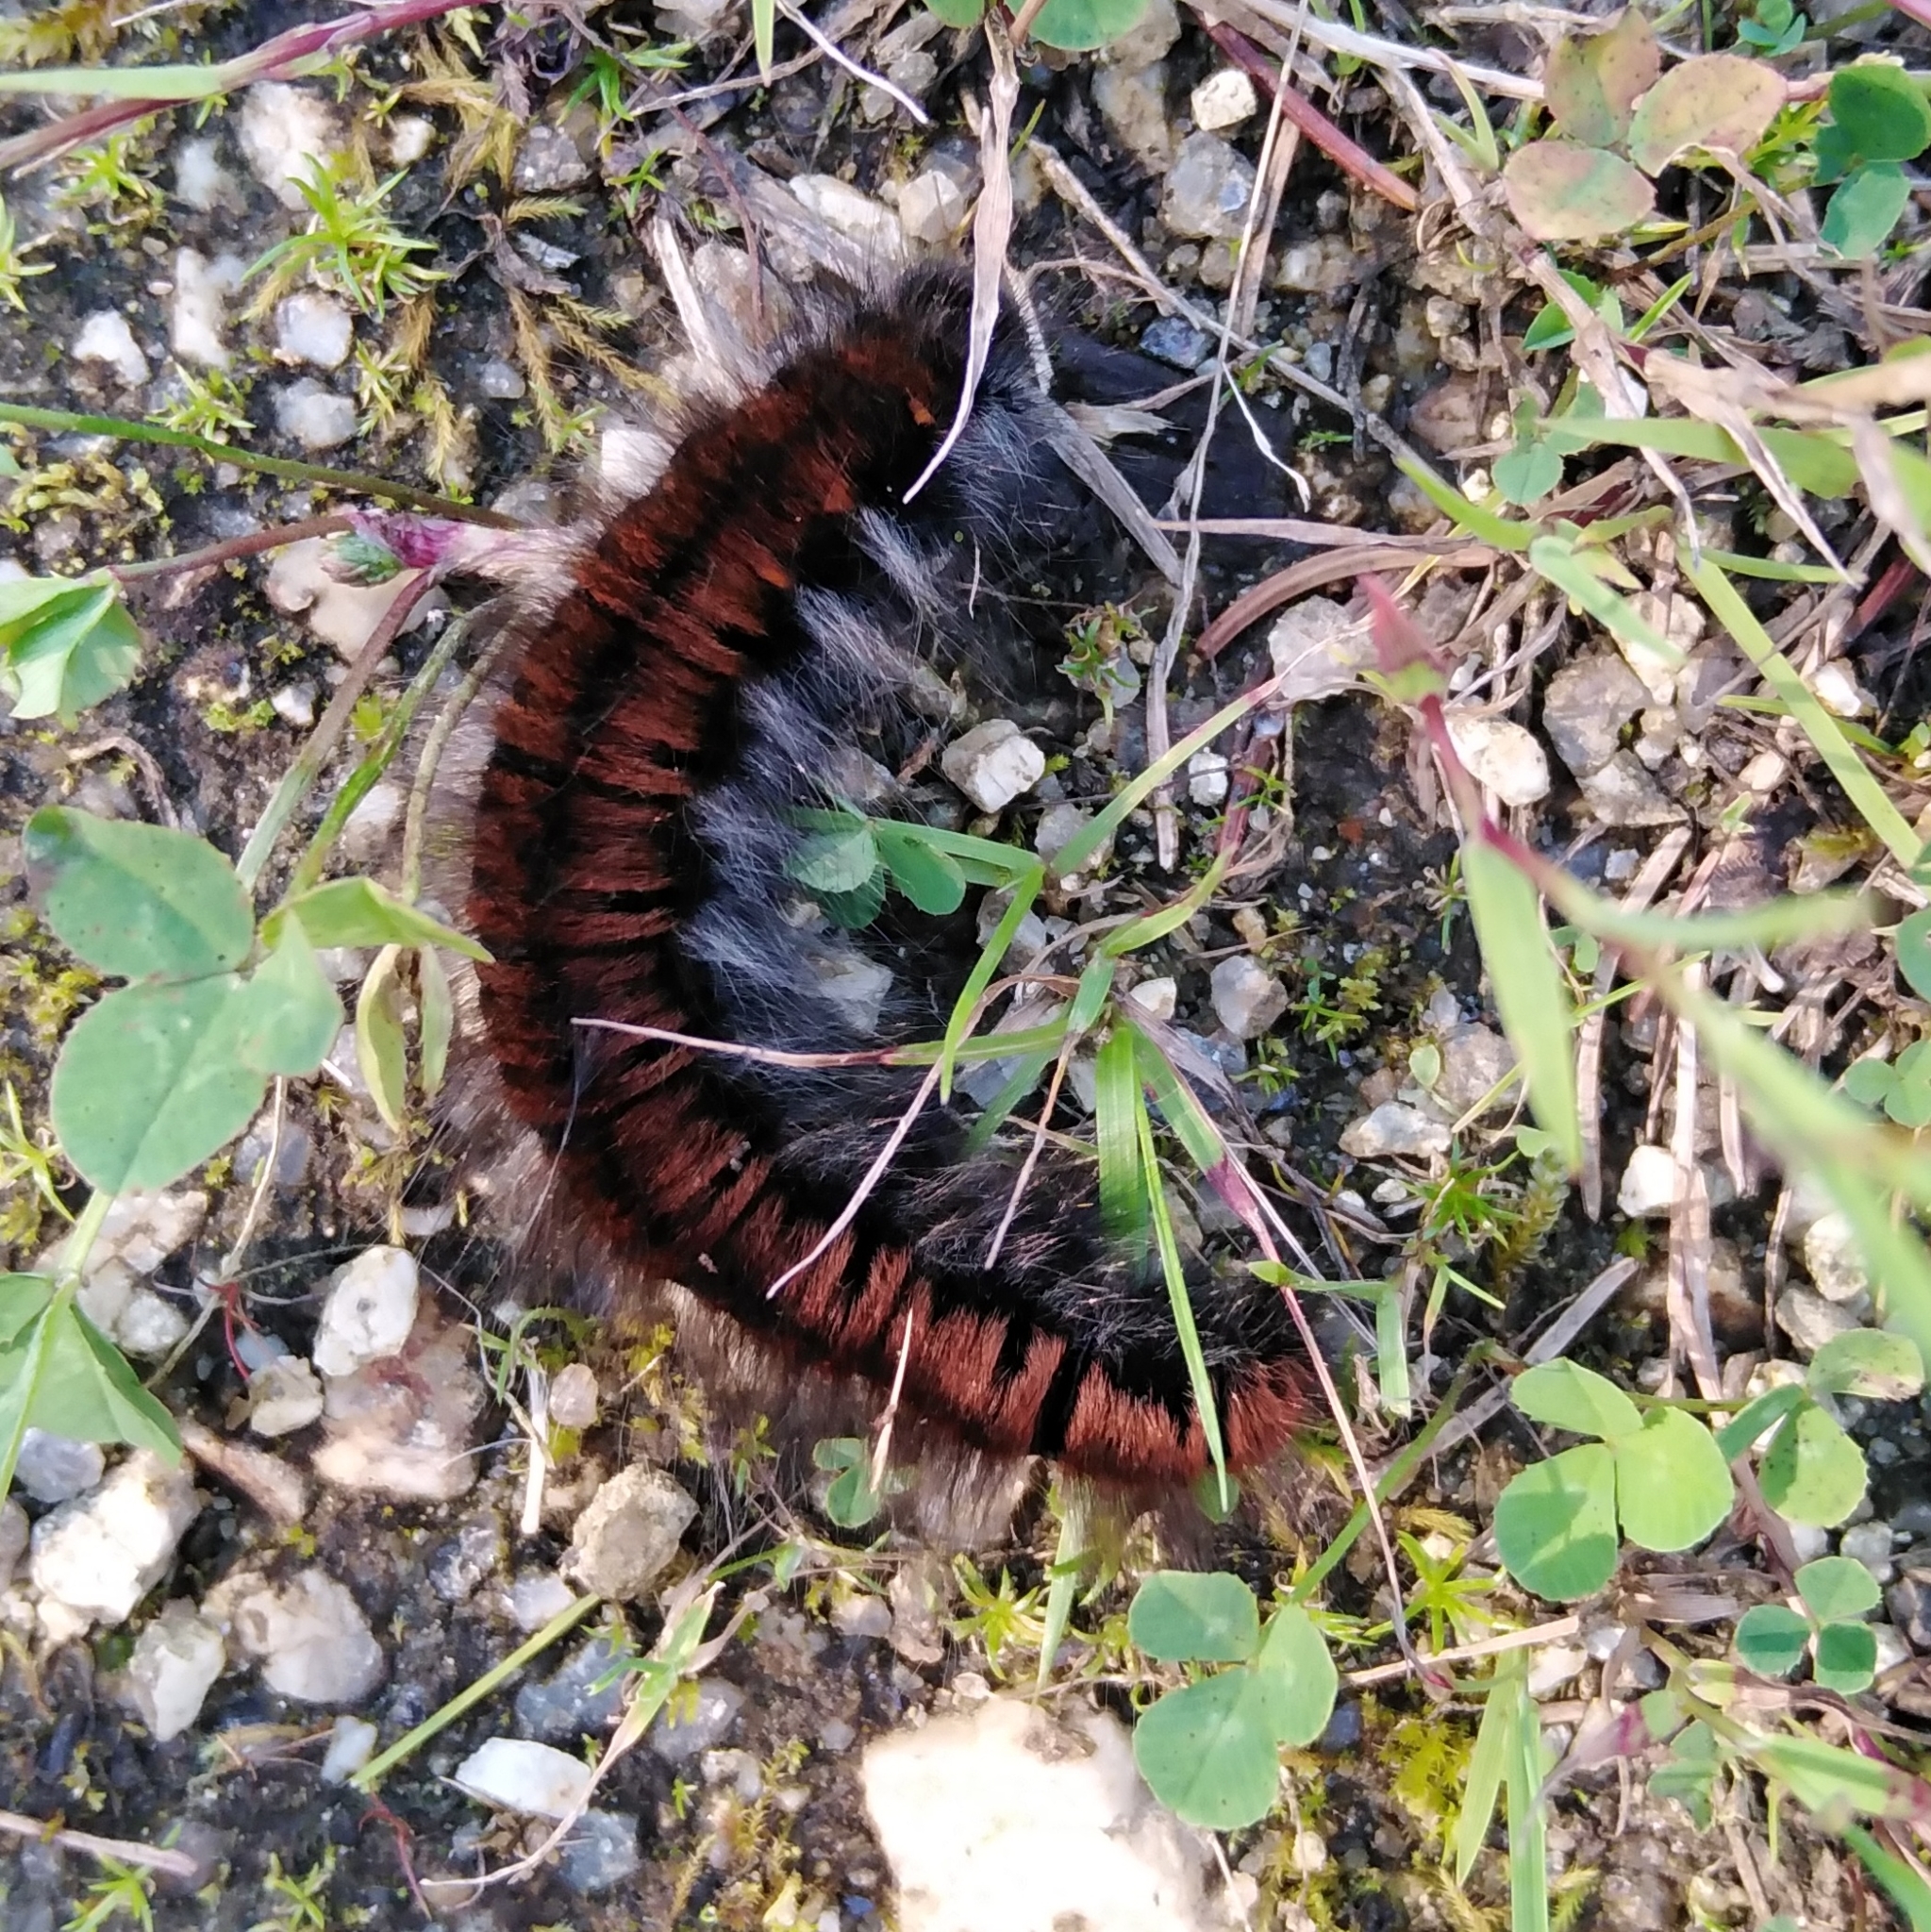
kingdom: Animalia
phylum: Arthropoda
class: Insecta
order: Lepidoptera
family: Lasiocampidae
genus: Macrothylacia
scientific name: Macrothylacia rubi
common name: Fox moth
